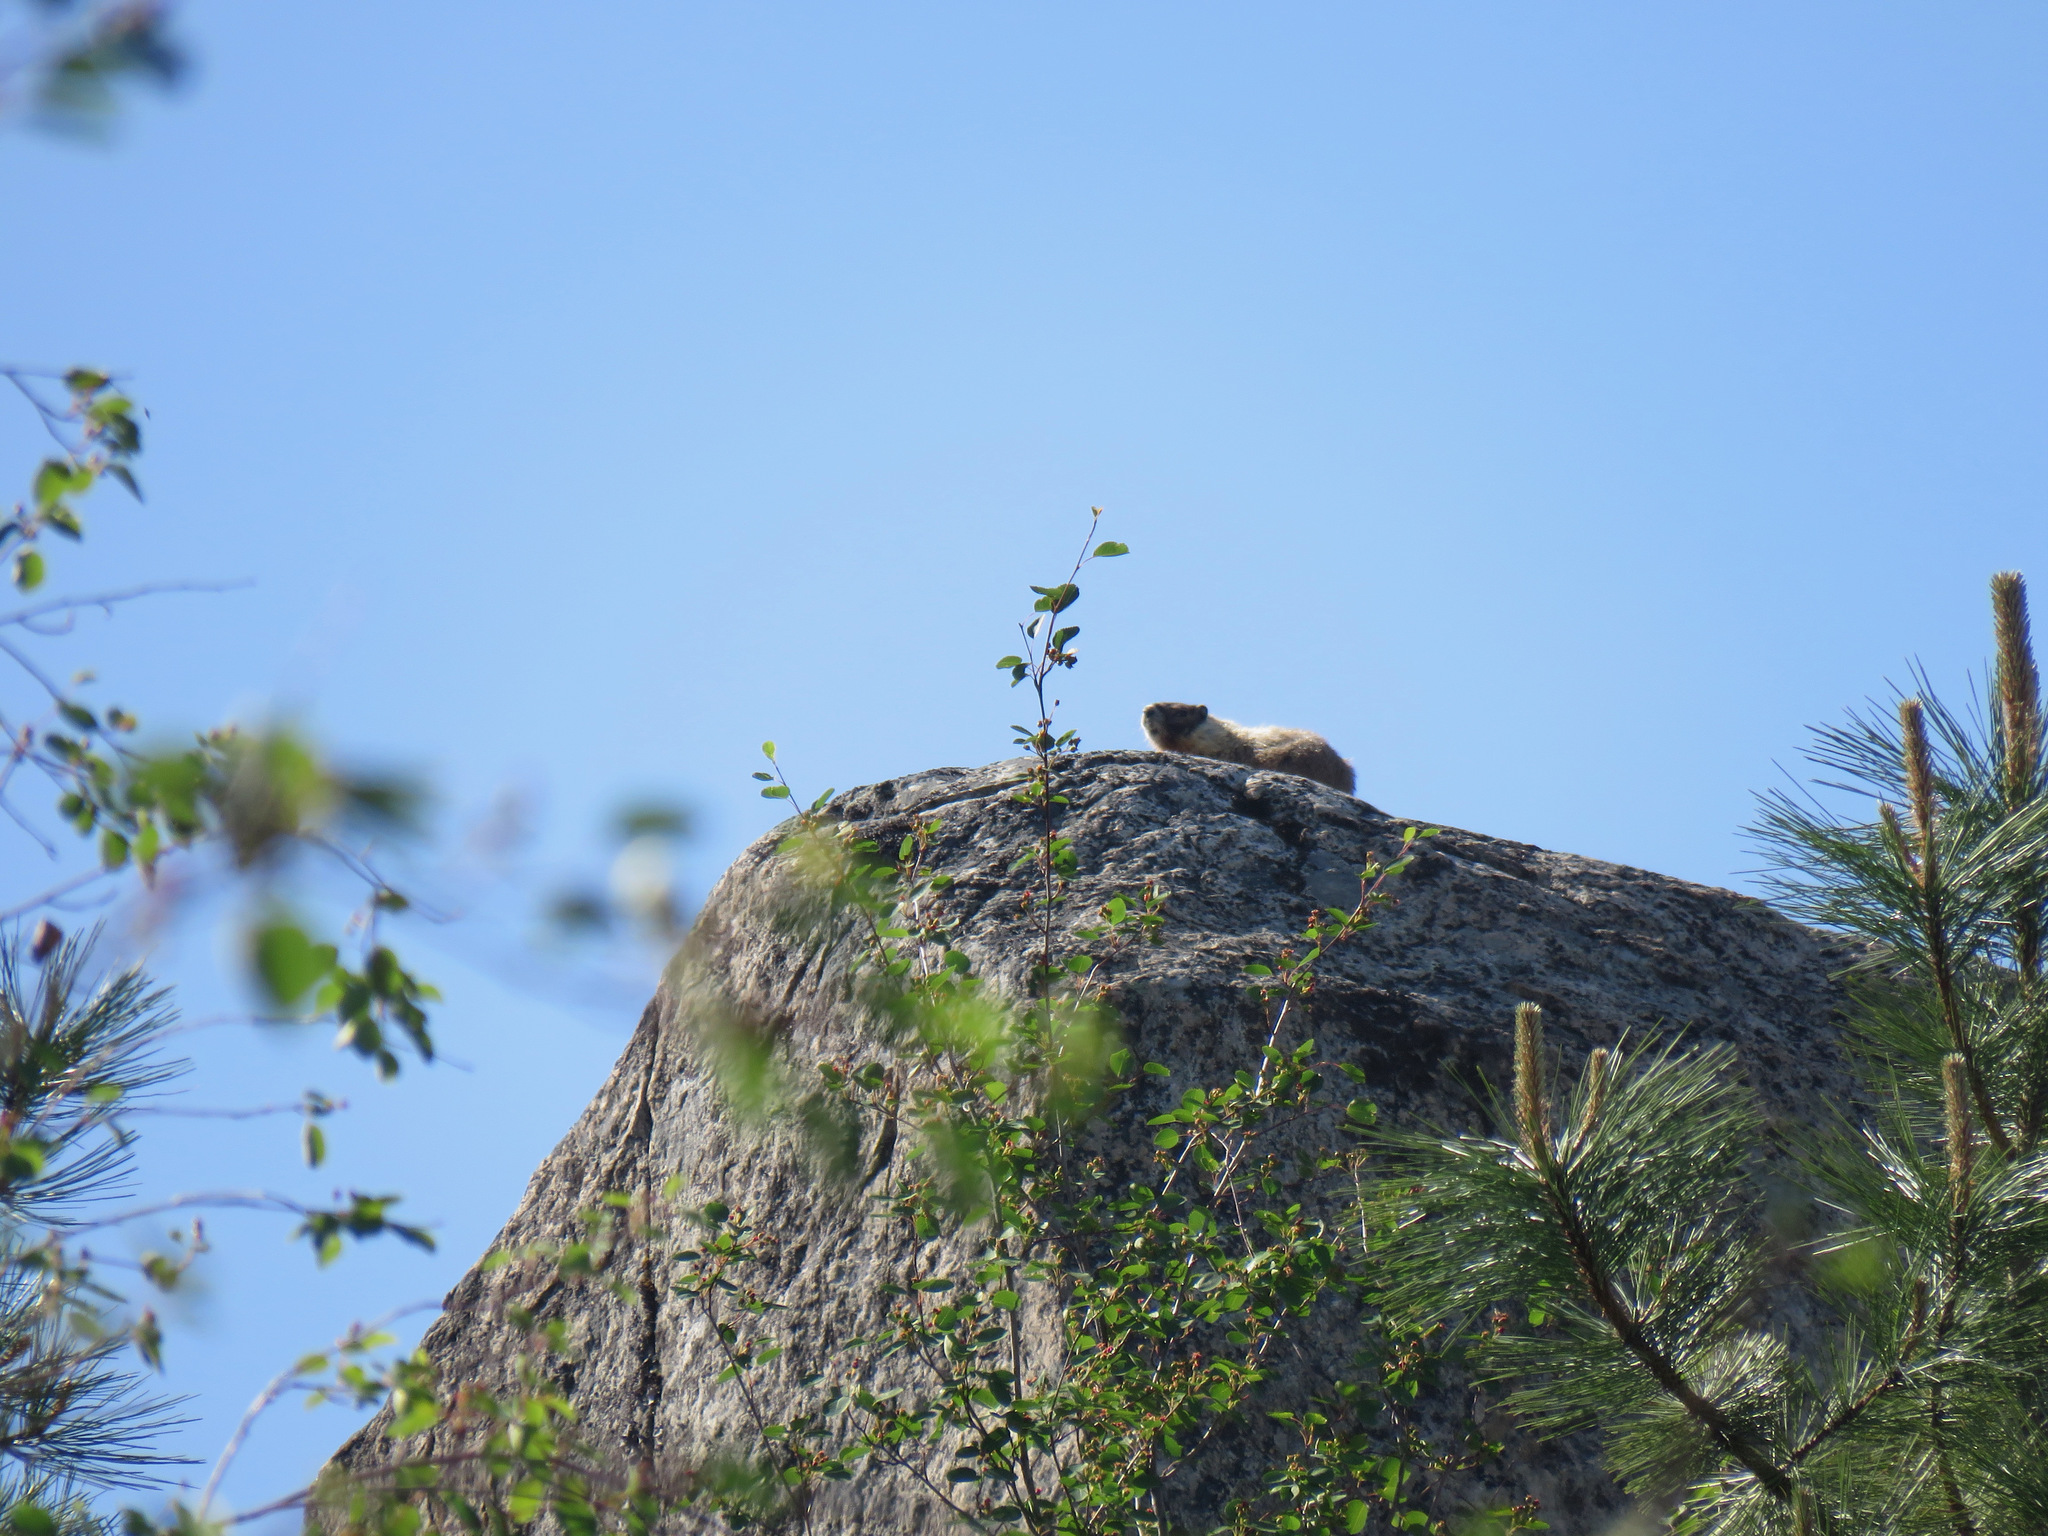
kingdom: Animalia
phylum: Chordata
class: Mammalia
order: Rodentia
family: Sciuridae
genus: Marmota
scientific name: Marmota flaviventris
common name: Yellow-bellied marmot
